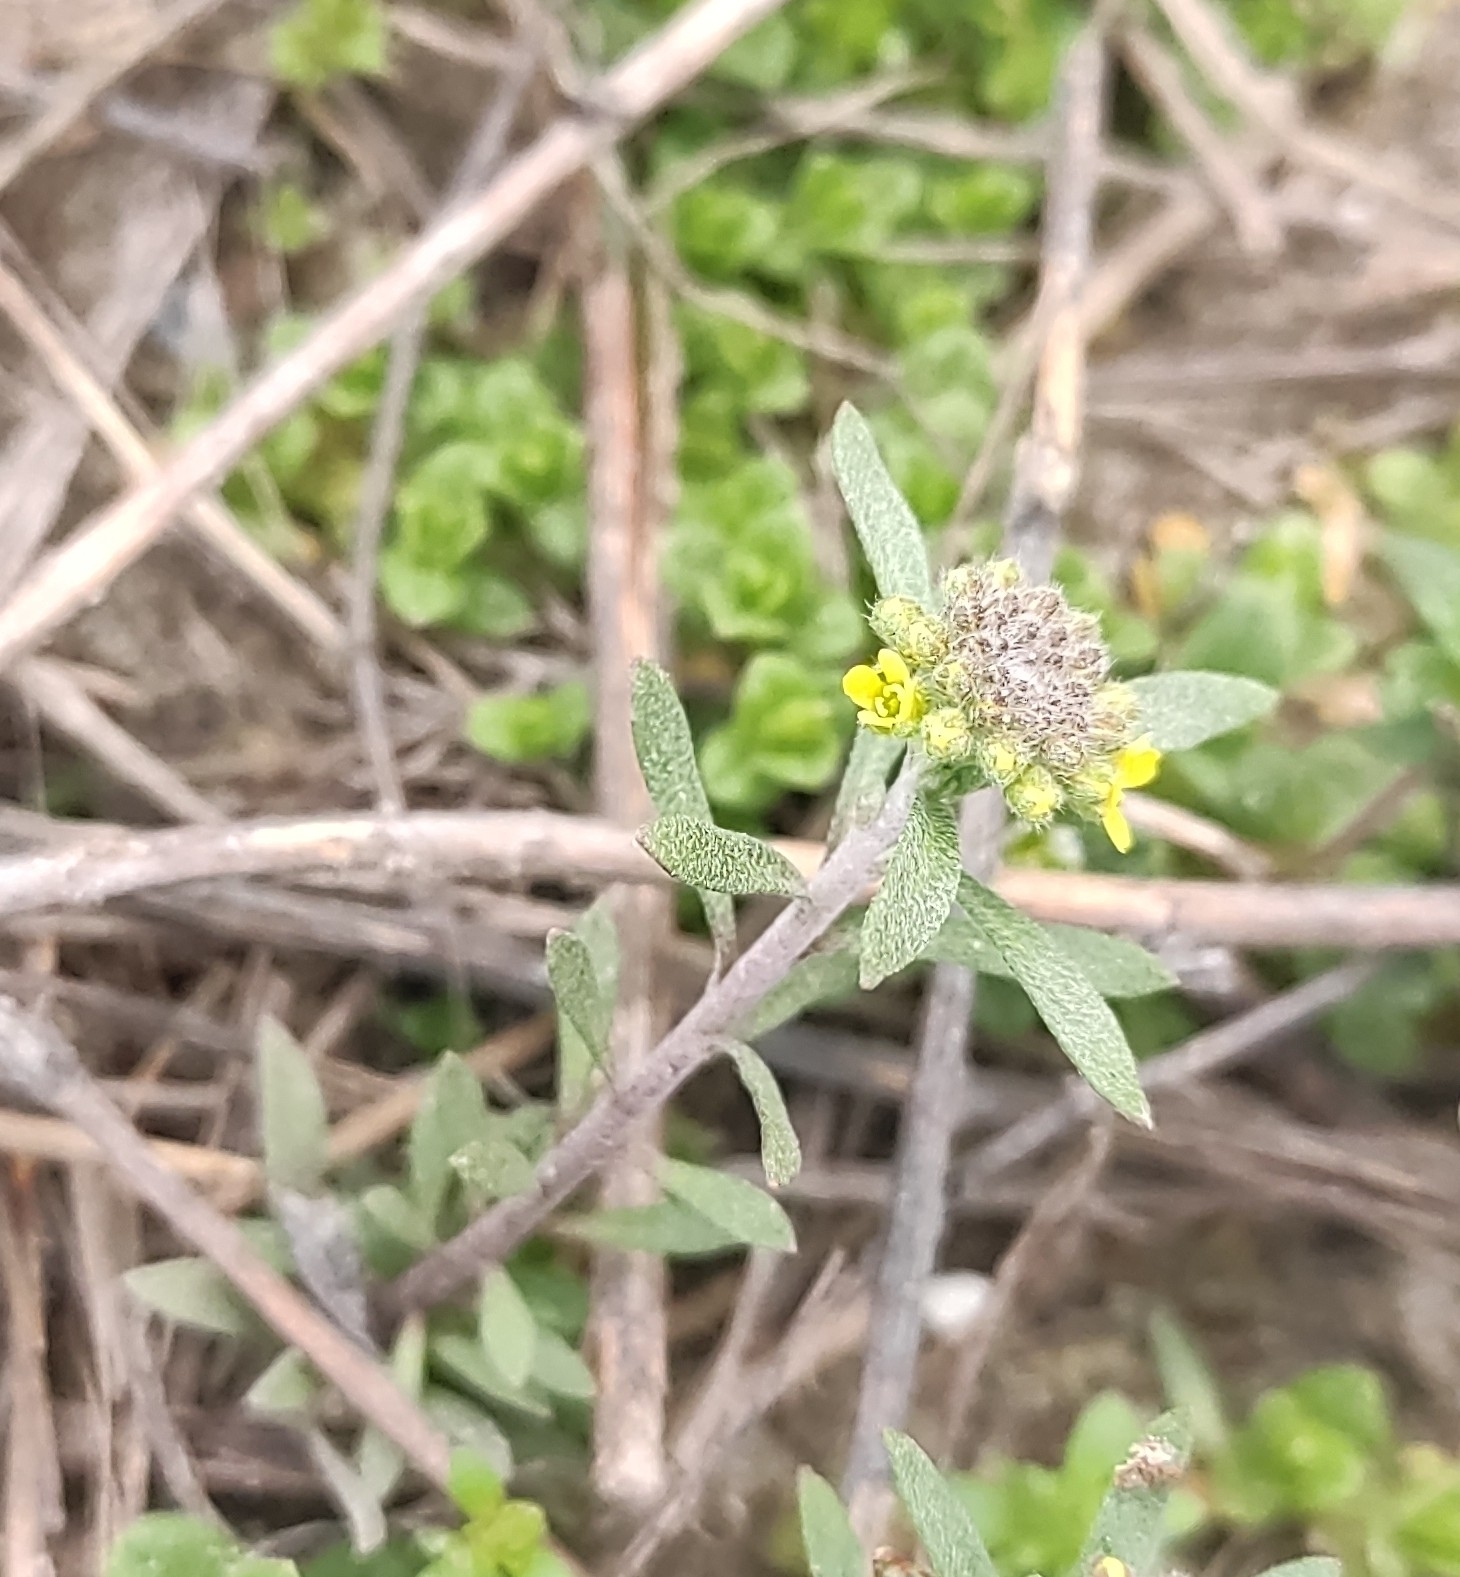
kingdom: Plantae
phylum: Tracheophyta
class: Magnoliopsida
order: Brassicales
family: Brassicaceae
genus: Alyssum
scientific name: Alyssum turkestanicum
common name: Desert alyssum
